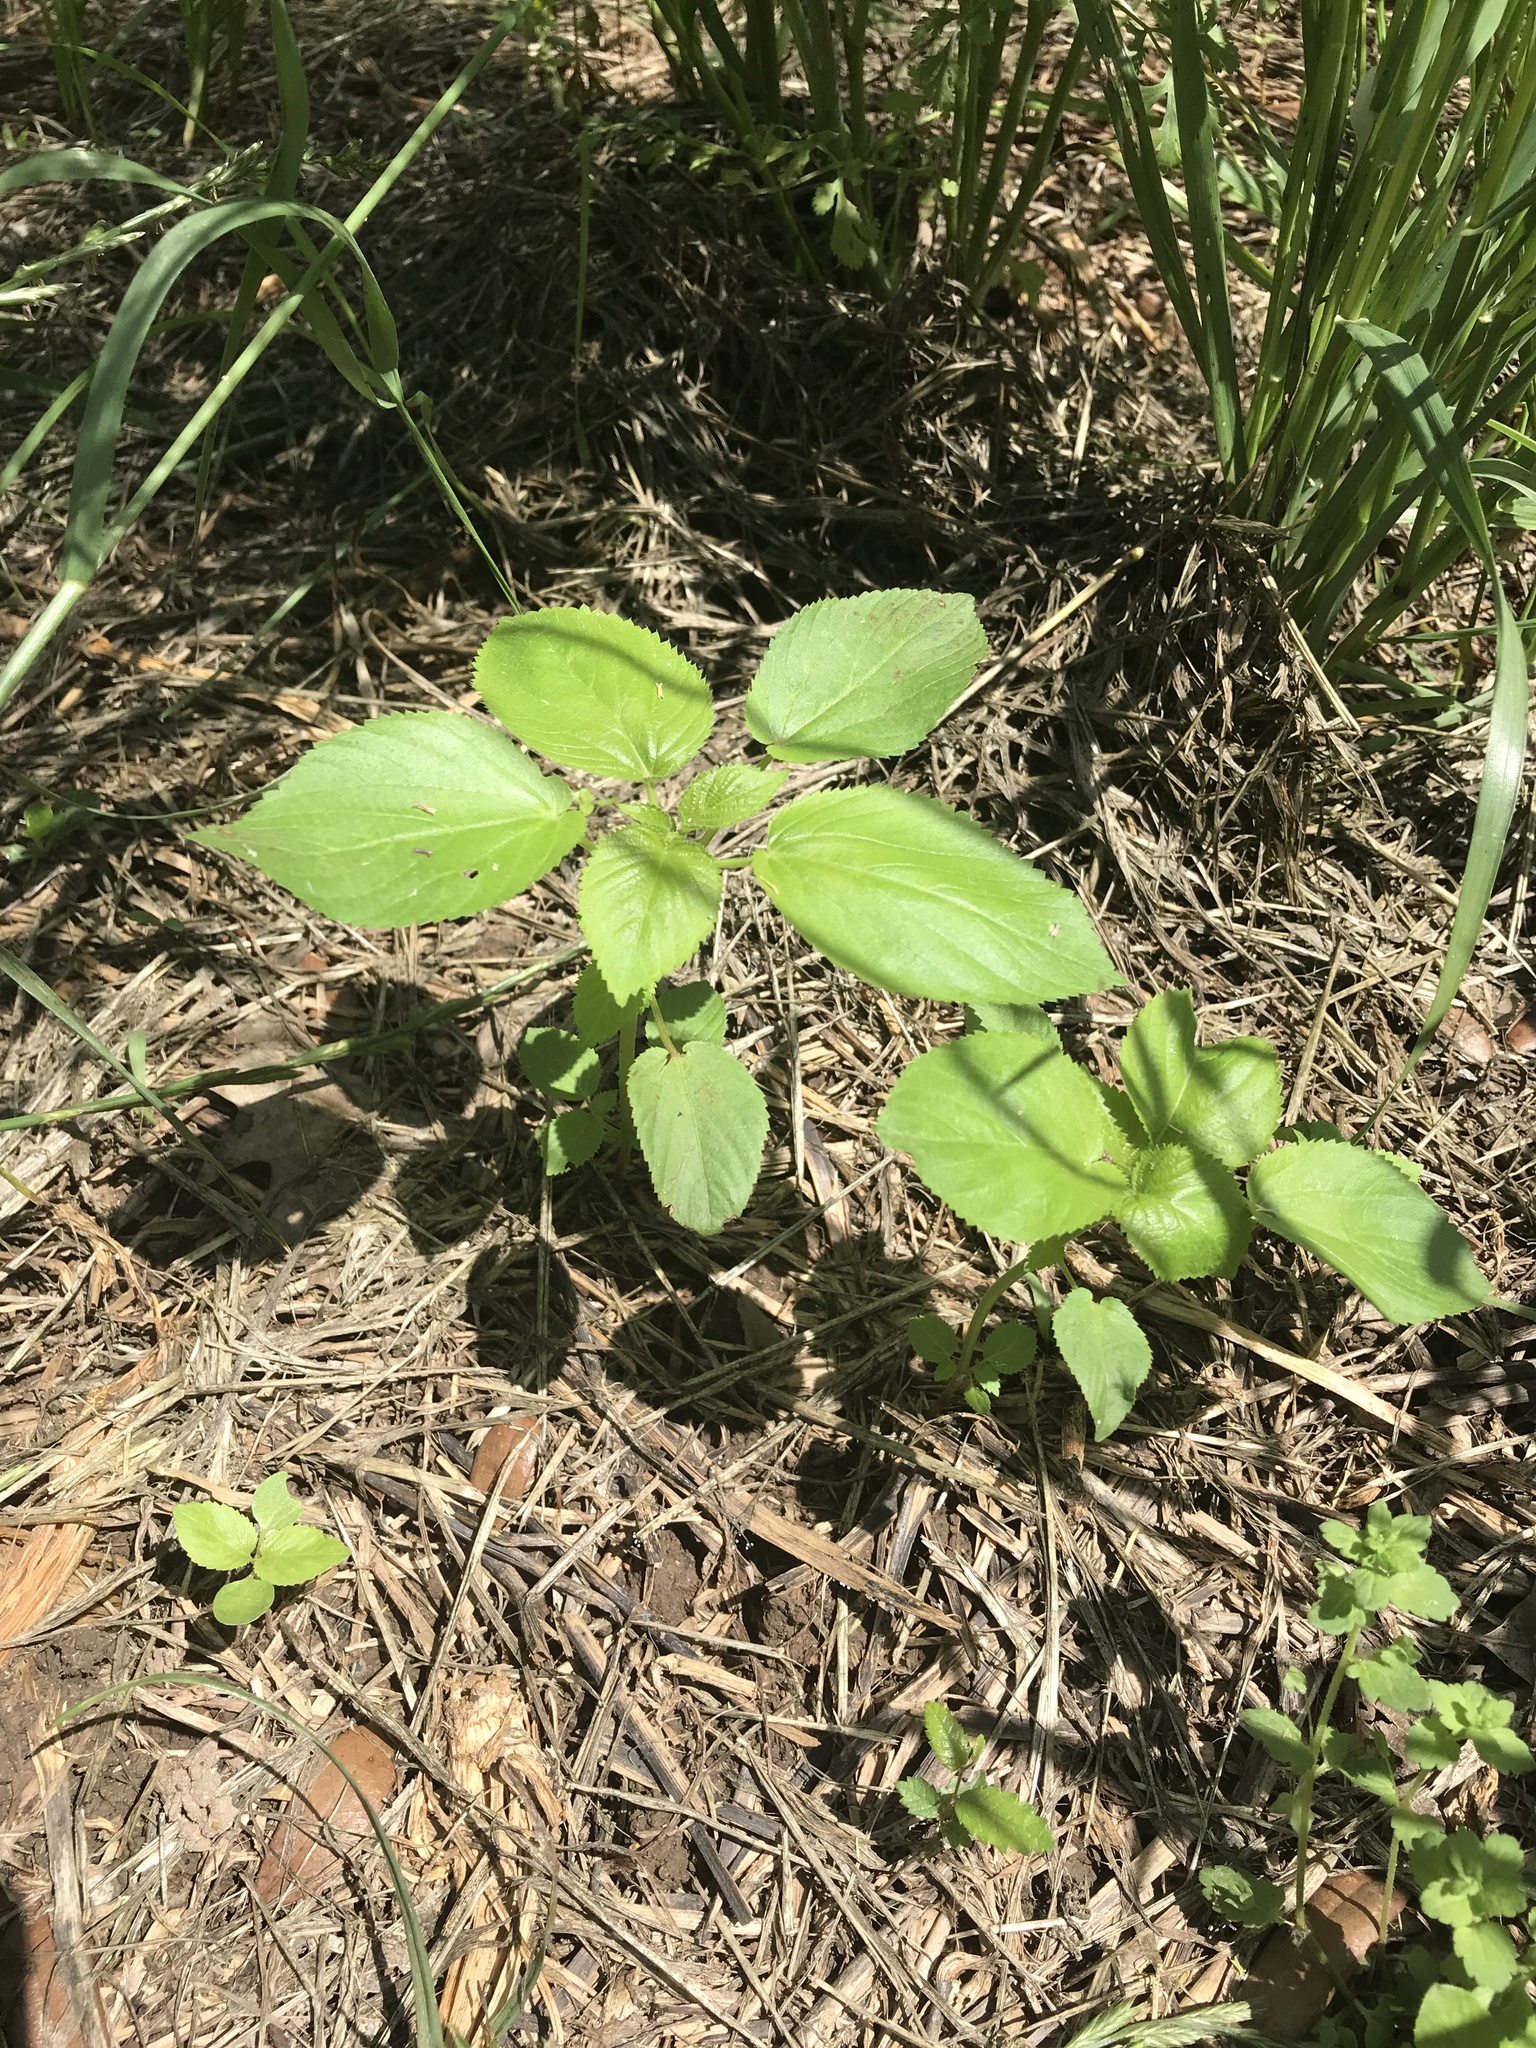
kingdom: Plantae
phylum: Tracheophyta
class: Magnoliopsida
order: Malpighiales
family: Euphorbiaceae
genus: Acalypha
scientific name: Acalypha ostryifolia
